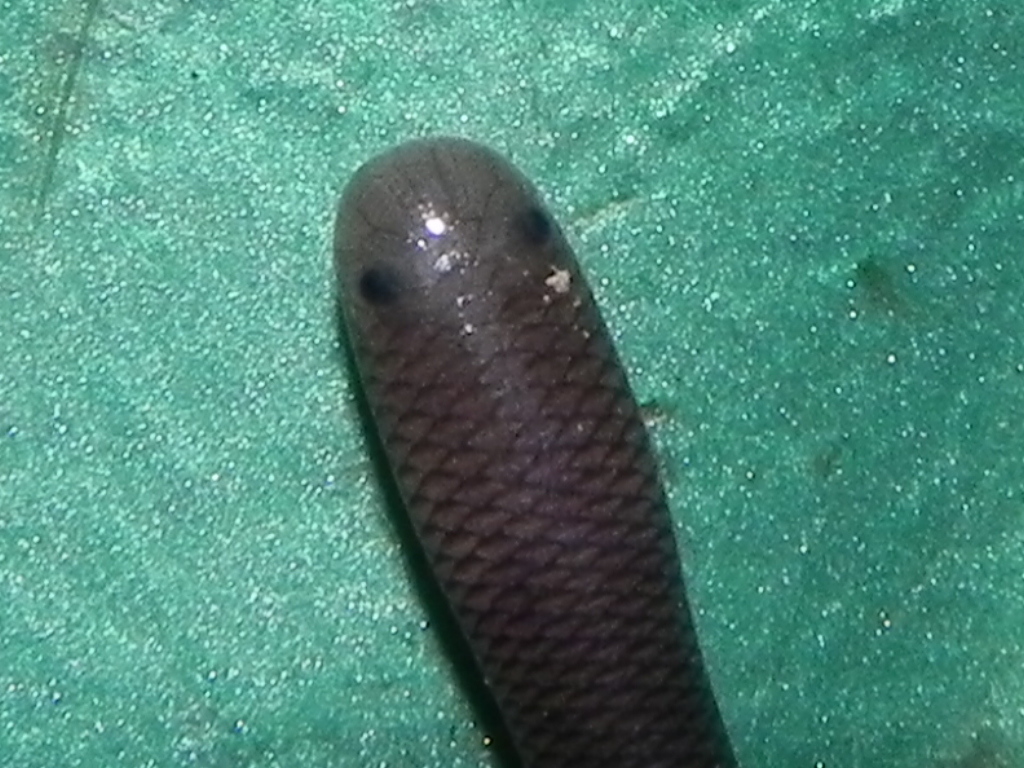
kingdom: Animalia
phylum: Chordata
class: Squamata
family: Typhlopidae
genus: Indotyphlops
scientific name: Indotyphlops braminus
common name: Brahminy blindsnake
